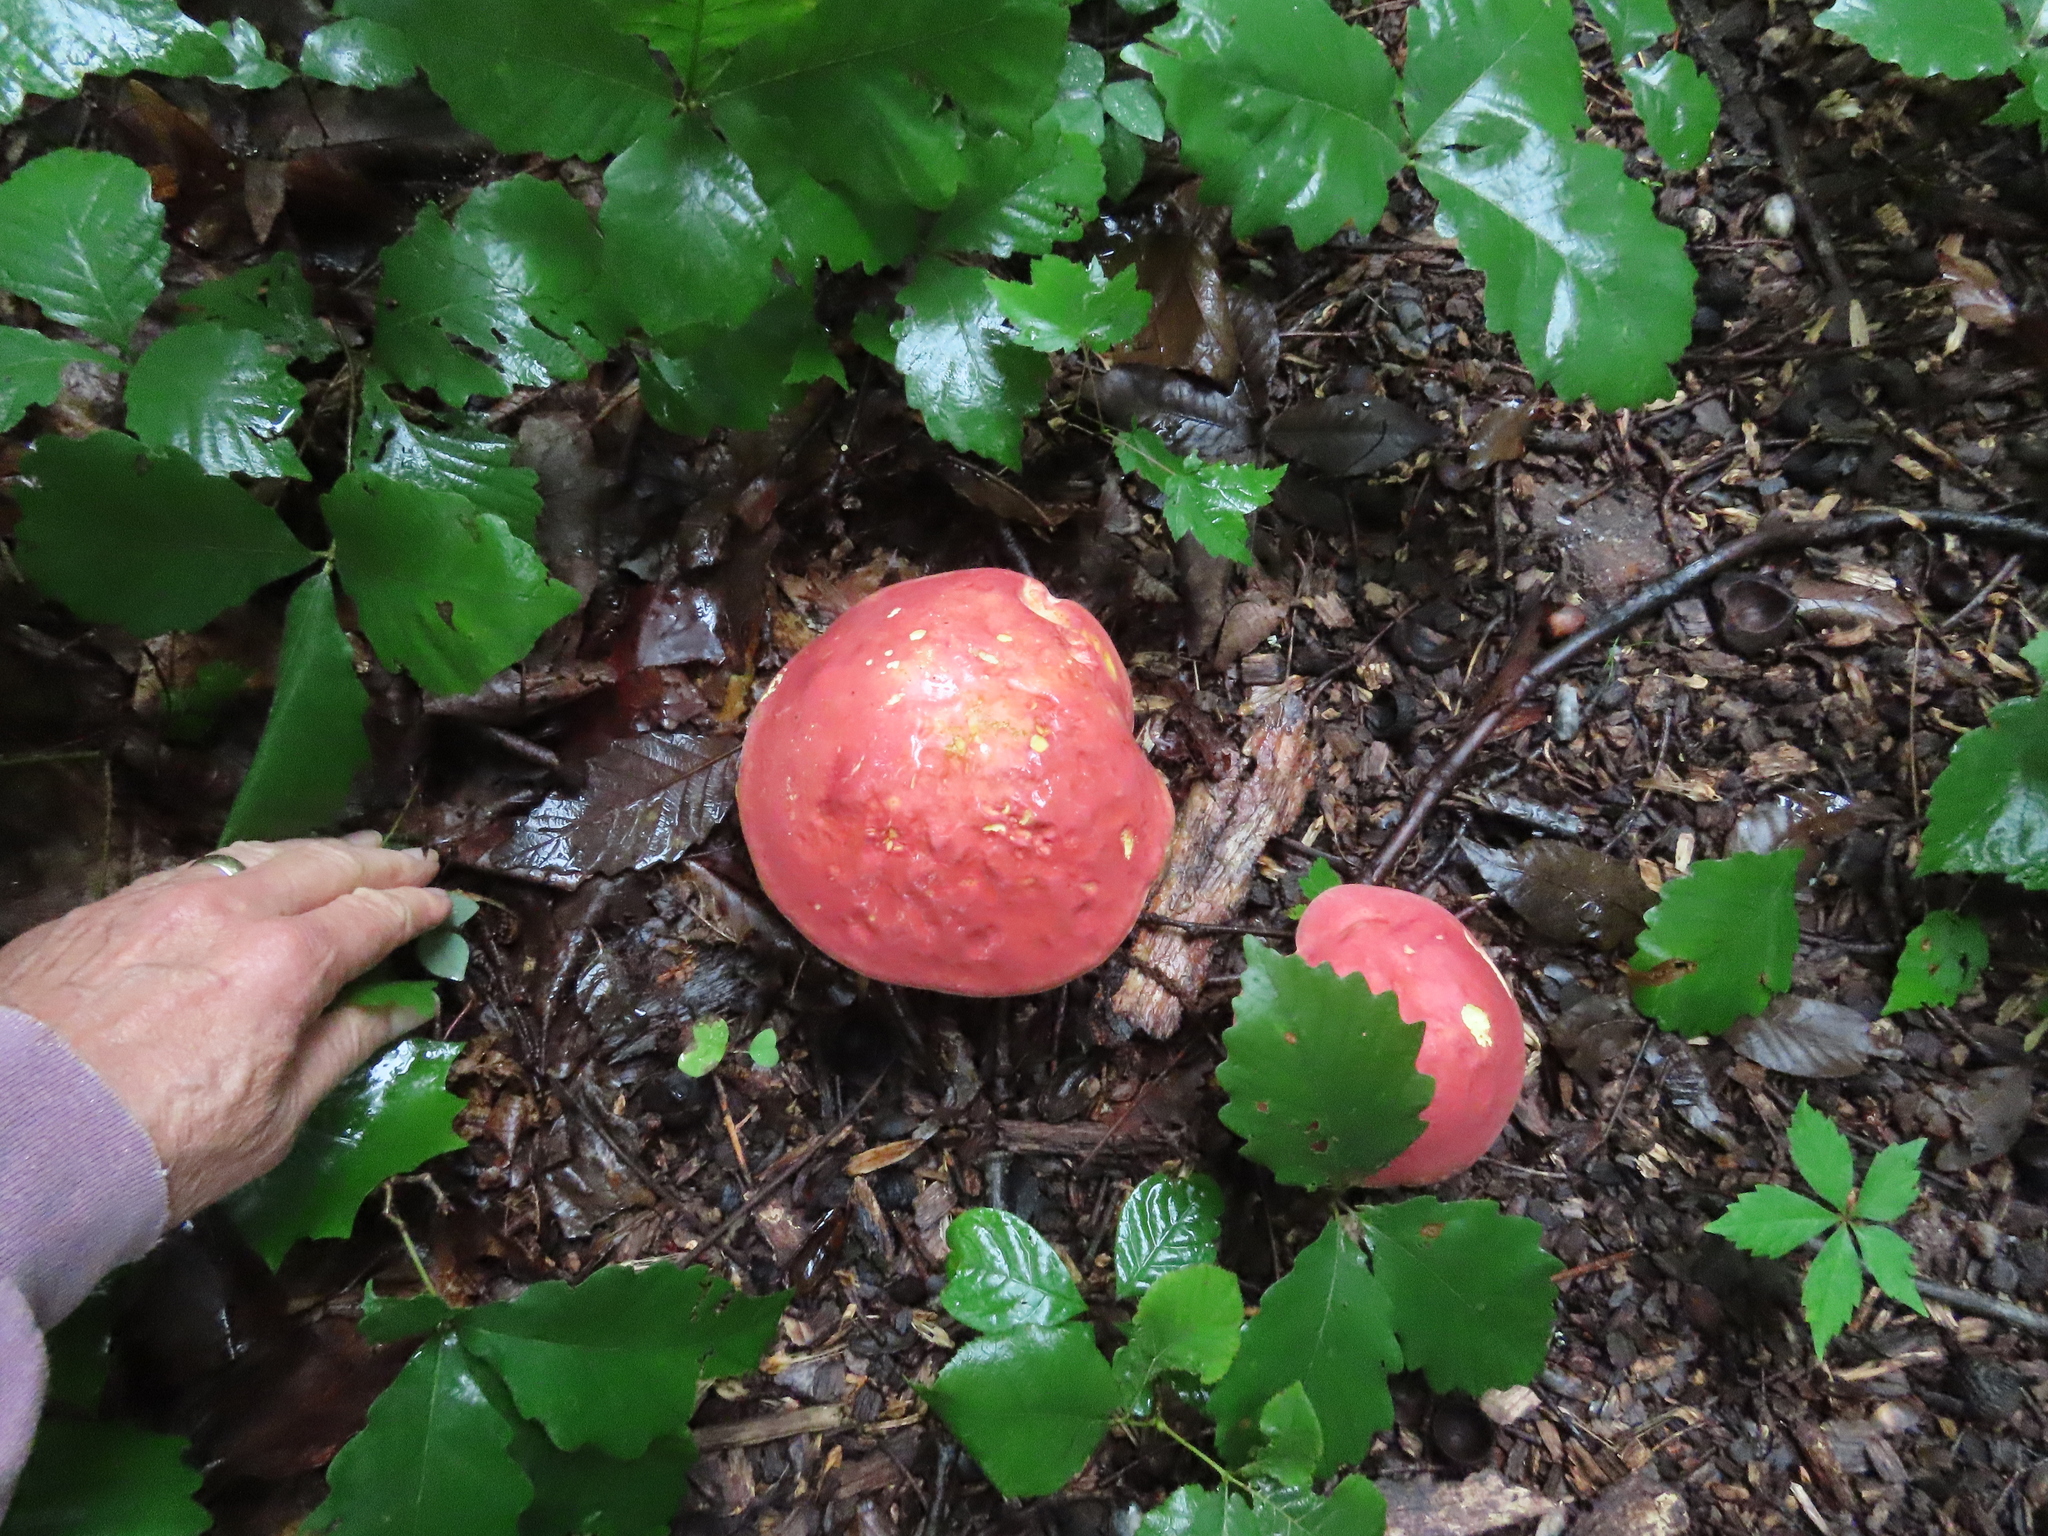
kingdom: Fungi
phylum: Basidiomycota
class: Agaricomycetes
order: Boletales
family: Boletaceae
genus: Baorangia
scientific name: Baorangia bicolor
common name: Two-colored bolete
